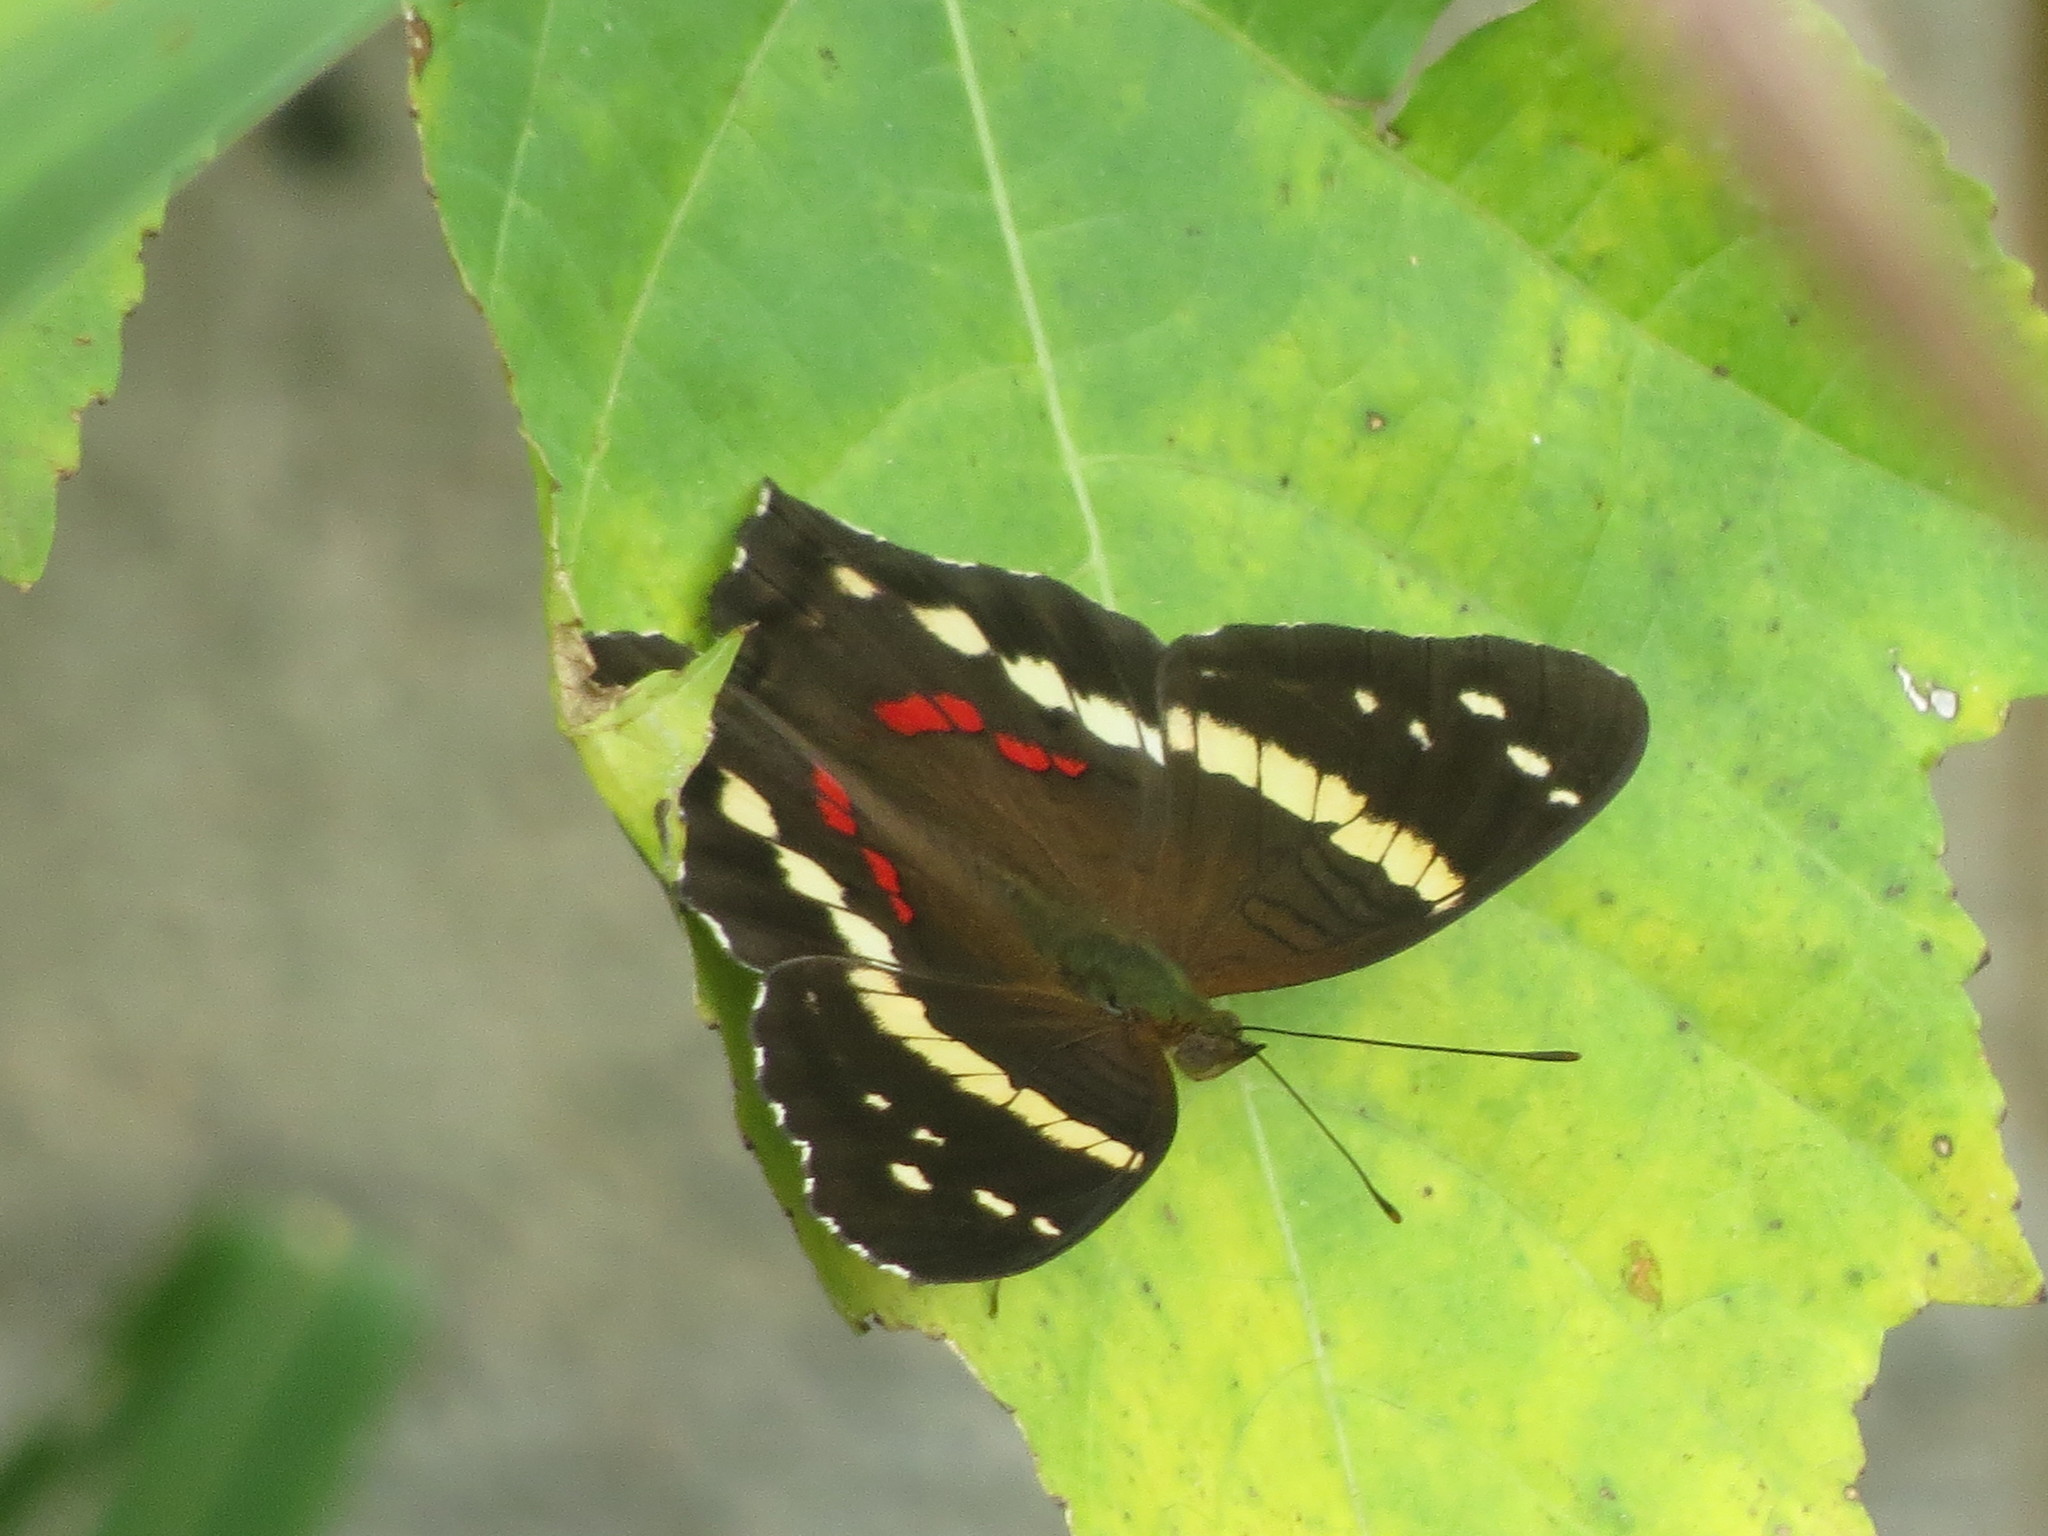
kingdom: Animalia
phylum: Arthropoda
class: Insecta
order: Lepidoptera
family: Nymphalidae
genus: Anartia
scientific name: Anartia fatima
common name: Banded peacock
